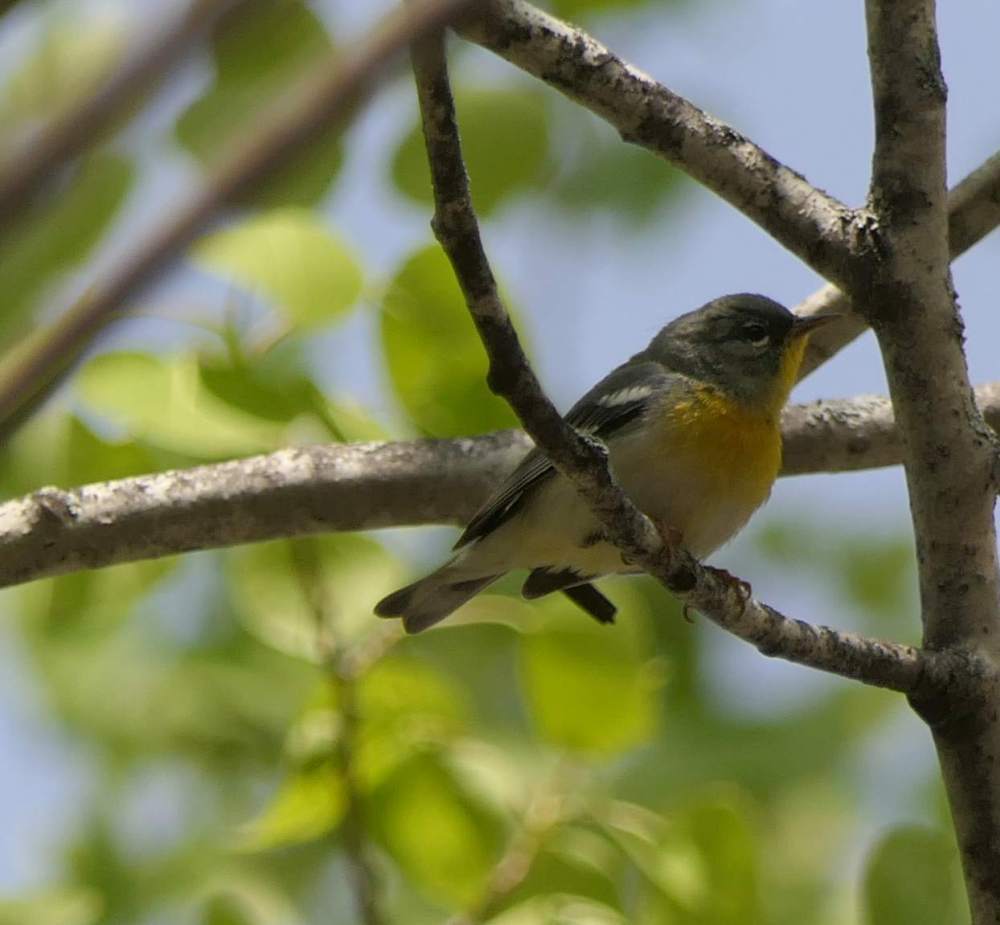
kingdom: Animalia
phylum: Chordata
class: Aves
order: Passeriformes
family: Parulidae
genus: Setophaga
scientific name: Setophaga americana
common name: Northern parula
